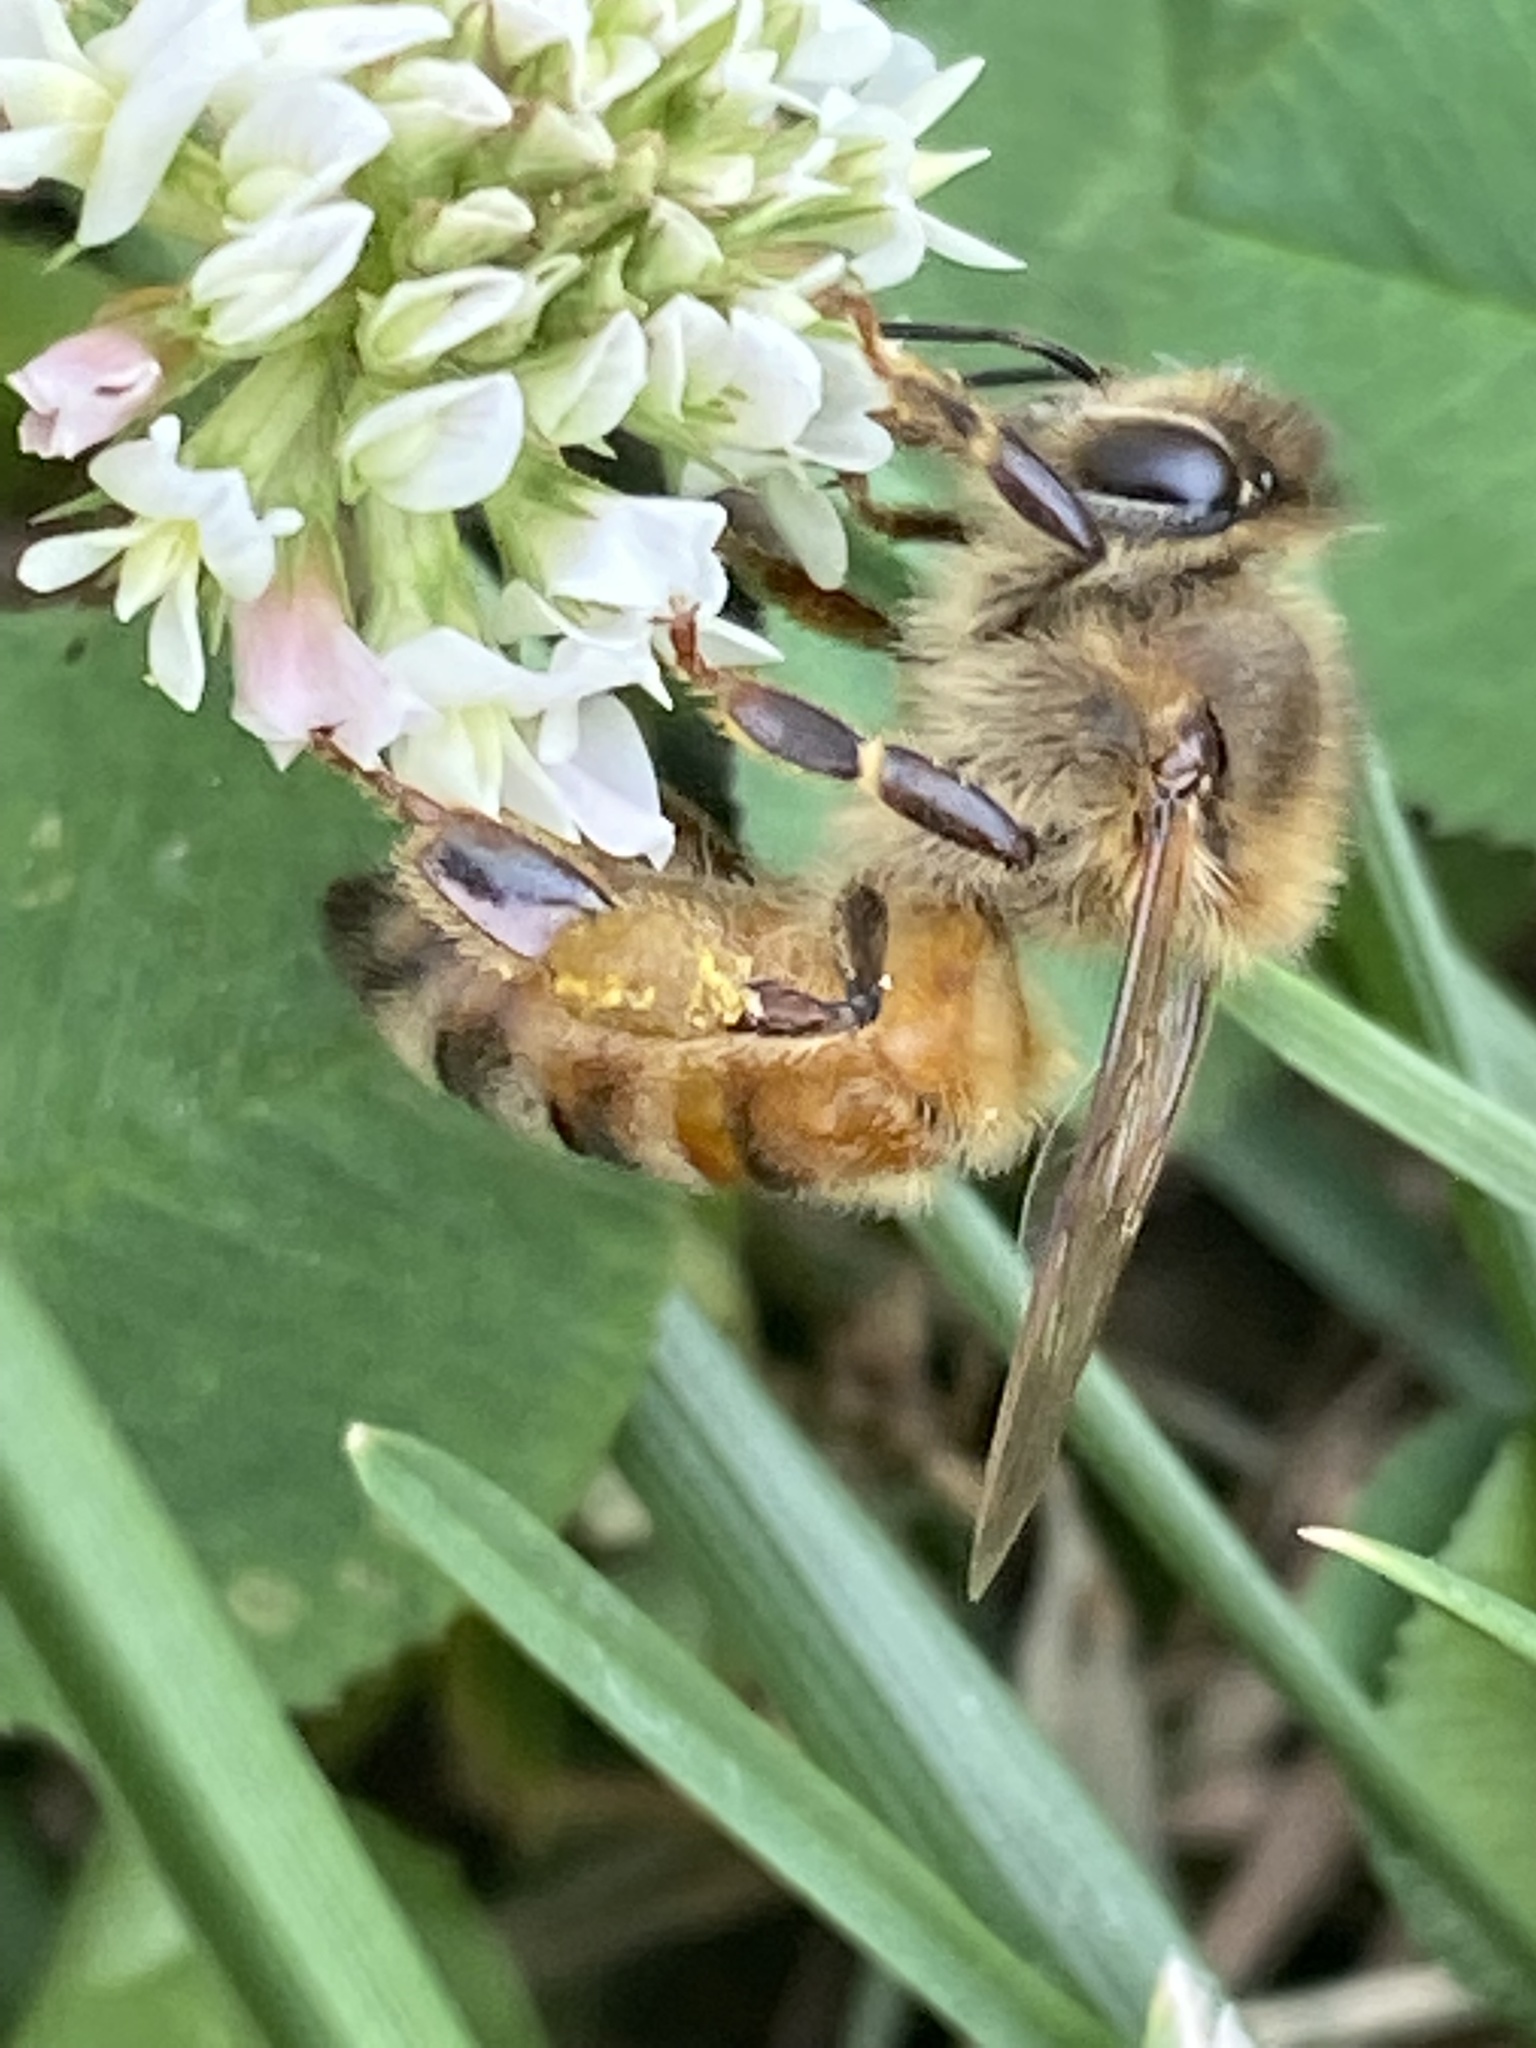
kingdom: Animalia
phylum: Arthropoda
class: Insecta
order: Hymenoptera
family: Apidae
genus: Apis
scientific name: Apis mellifera
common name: Honey bee
